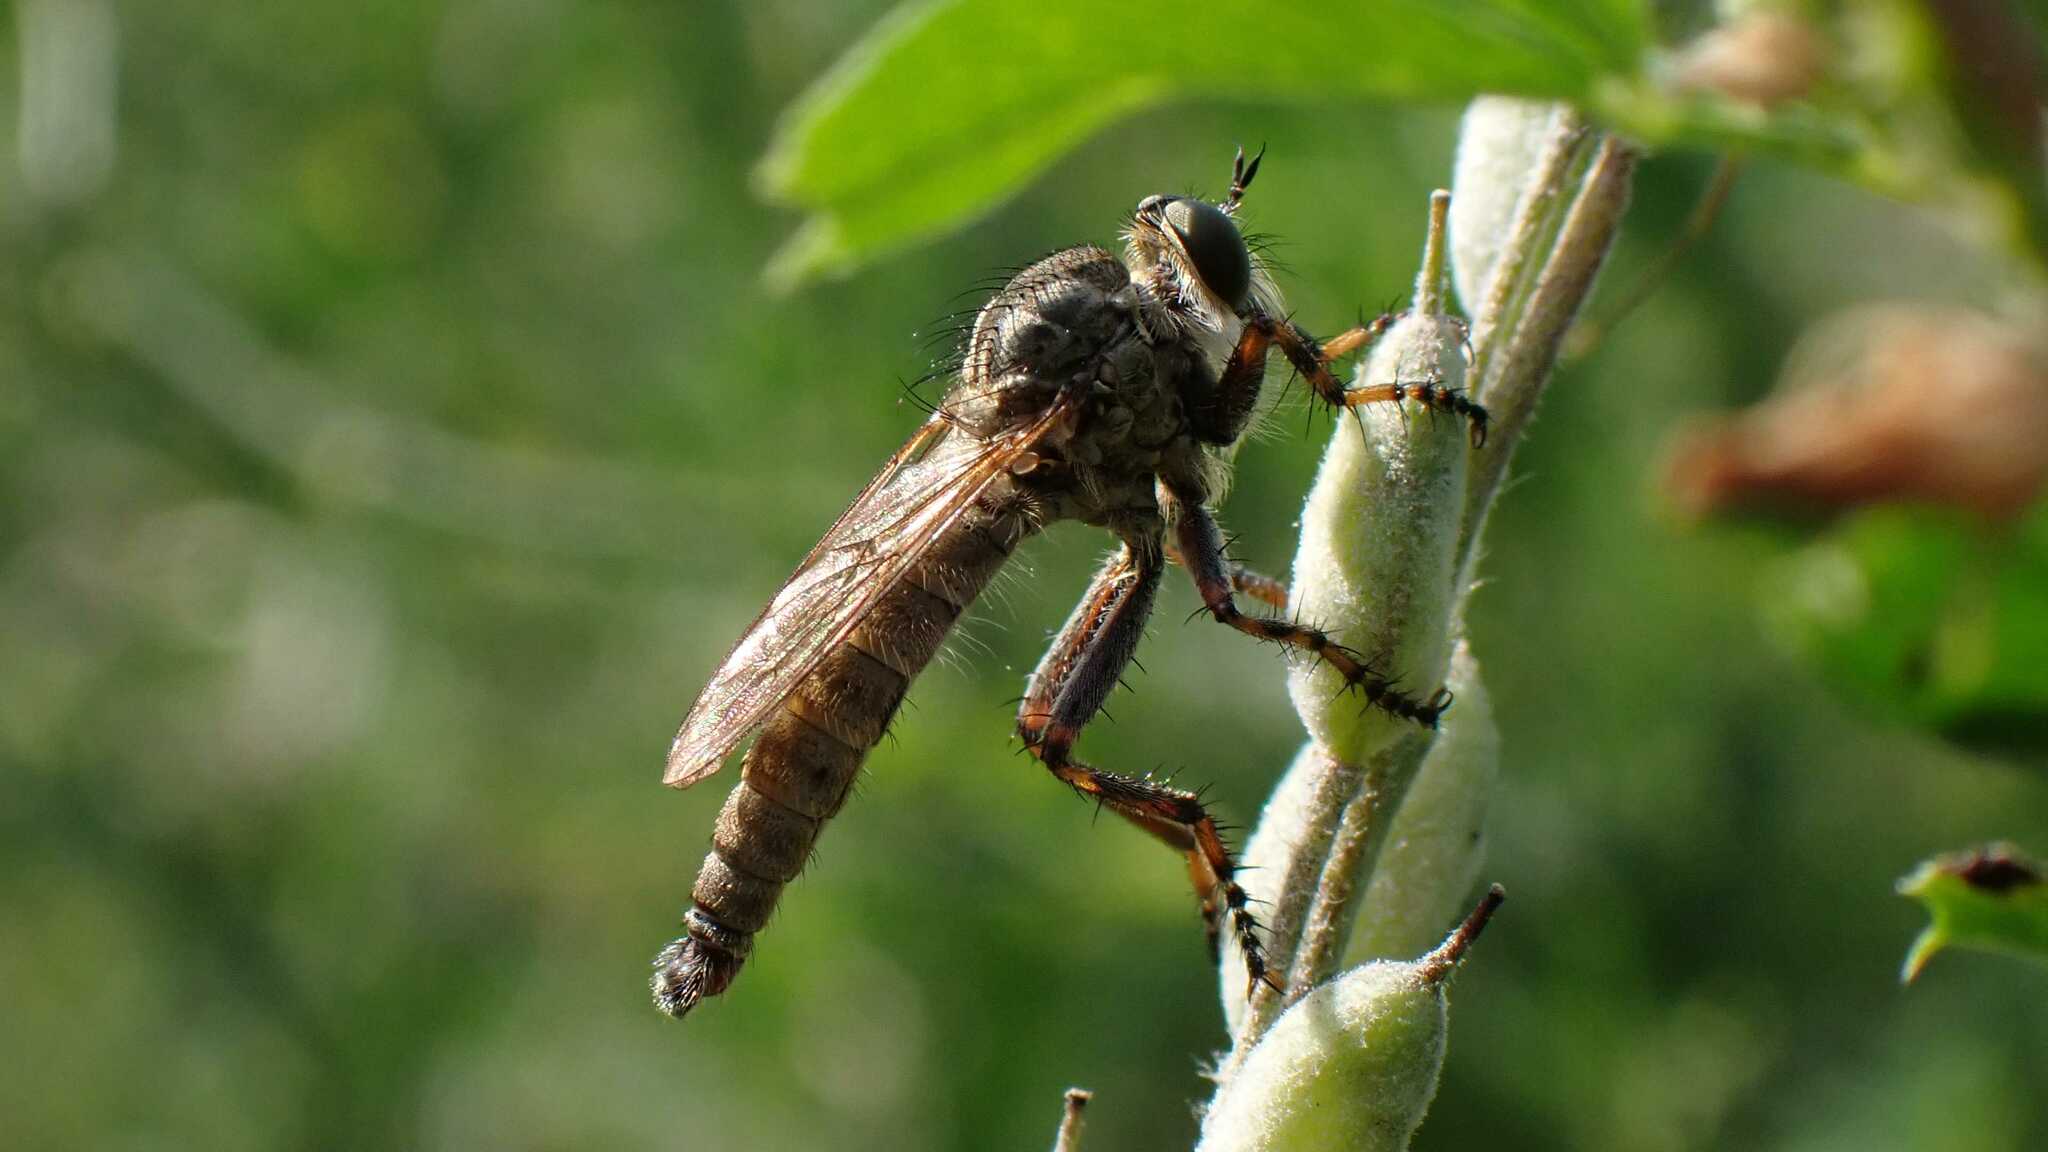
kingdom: Animalia
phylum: Arthropoda
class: Insecta
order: Diptera
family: Asilidae
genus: Epitriptus
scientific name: Epitriptus cingulatus
